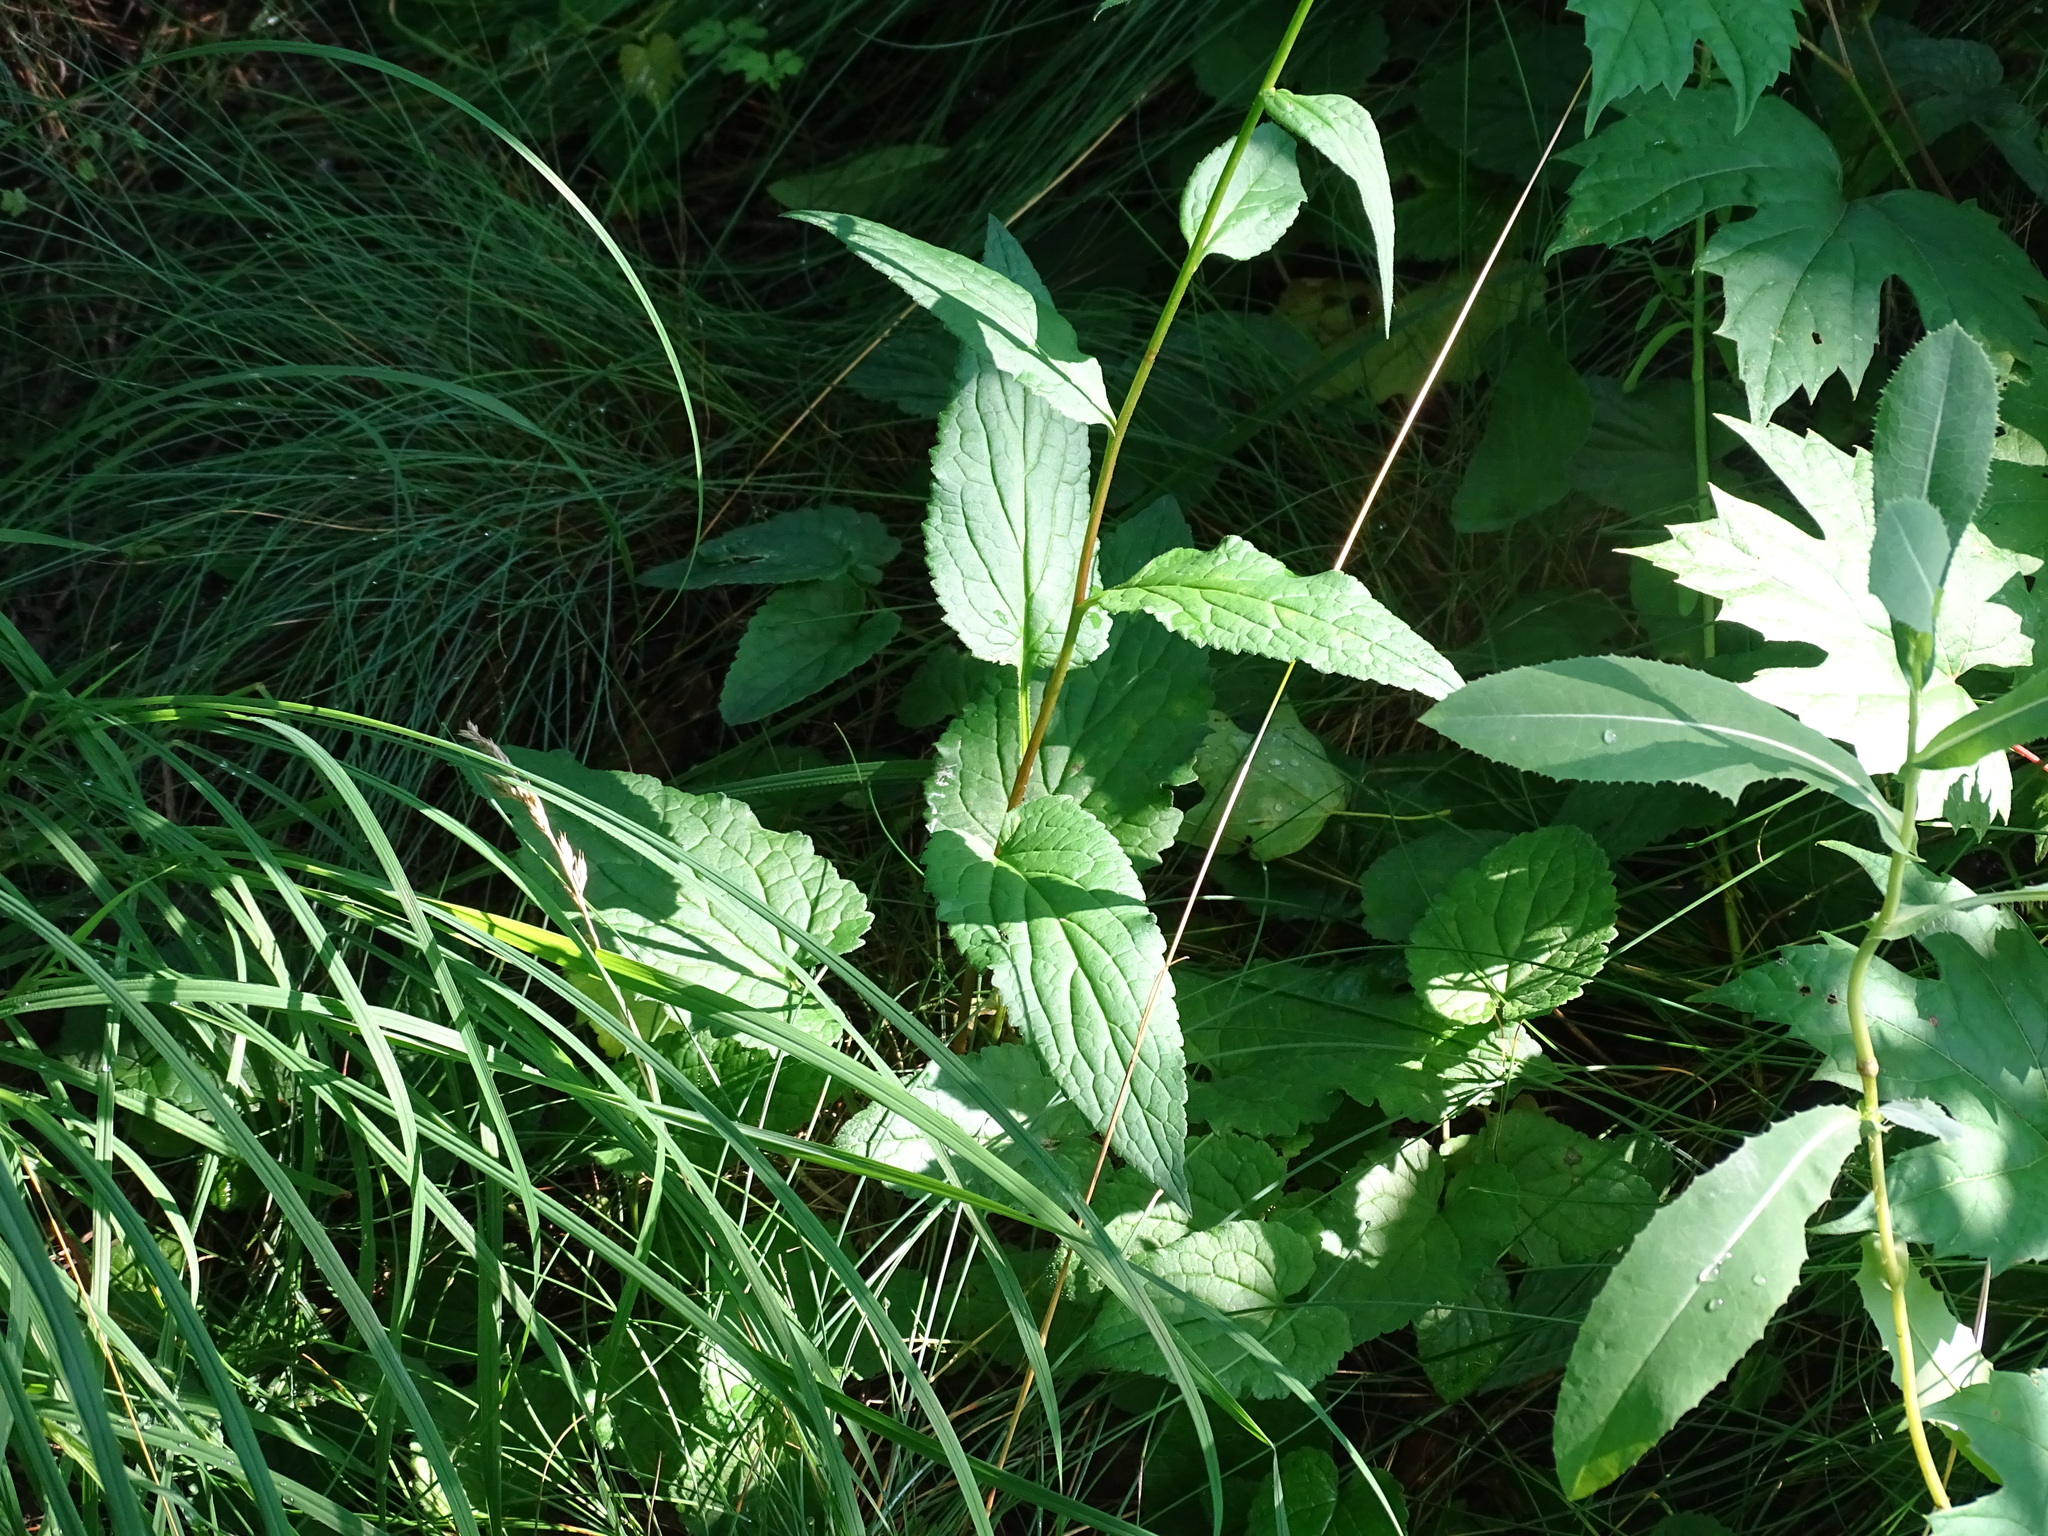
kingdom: Plantae
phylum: Tracheophyta
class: Magnoliopsida
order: Asterales
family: Campanulaceae
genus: Campanula
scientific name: Campanula rapunculoides
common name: Creeping bellflower
